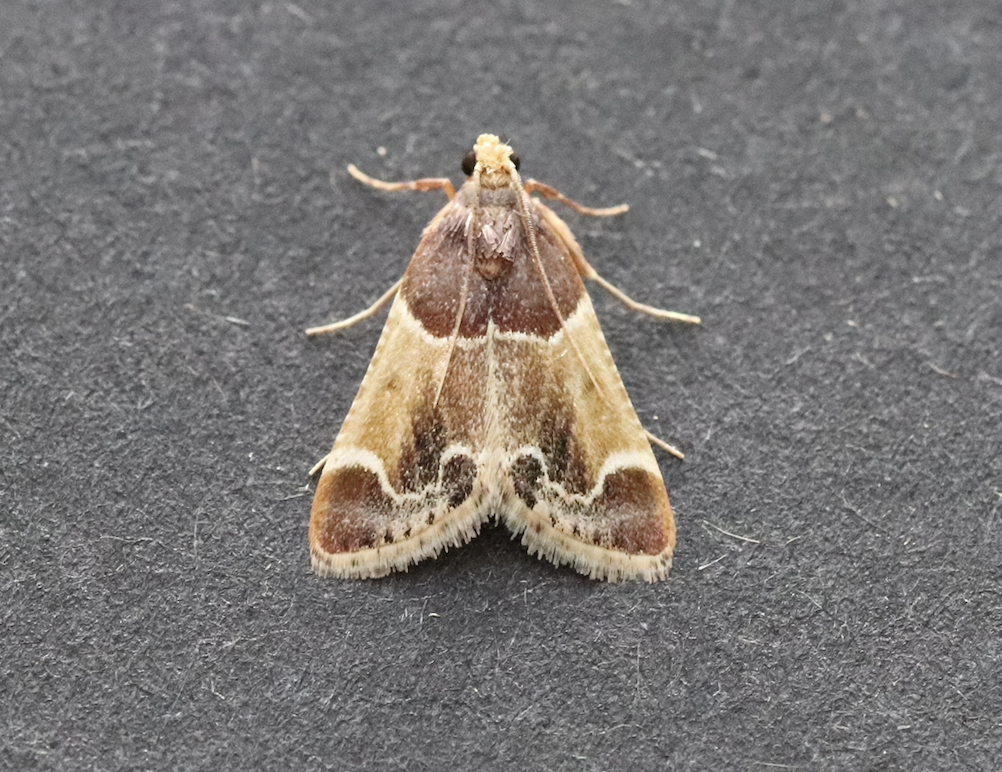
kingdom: Animalia
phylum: Arthropoda
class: Insecta
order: Lepidoptera
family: Pyralidae
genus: Pyralis
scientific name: Pyralis farinalis
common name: Meal moth
